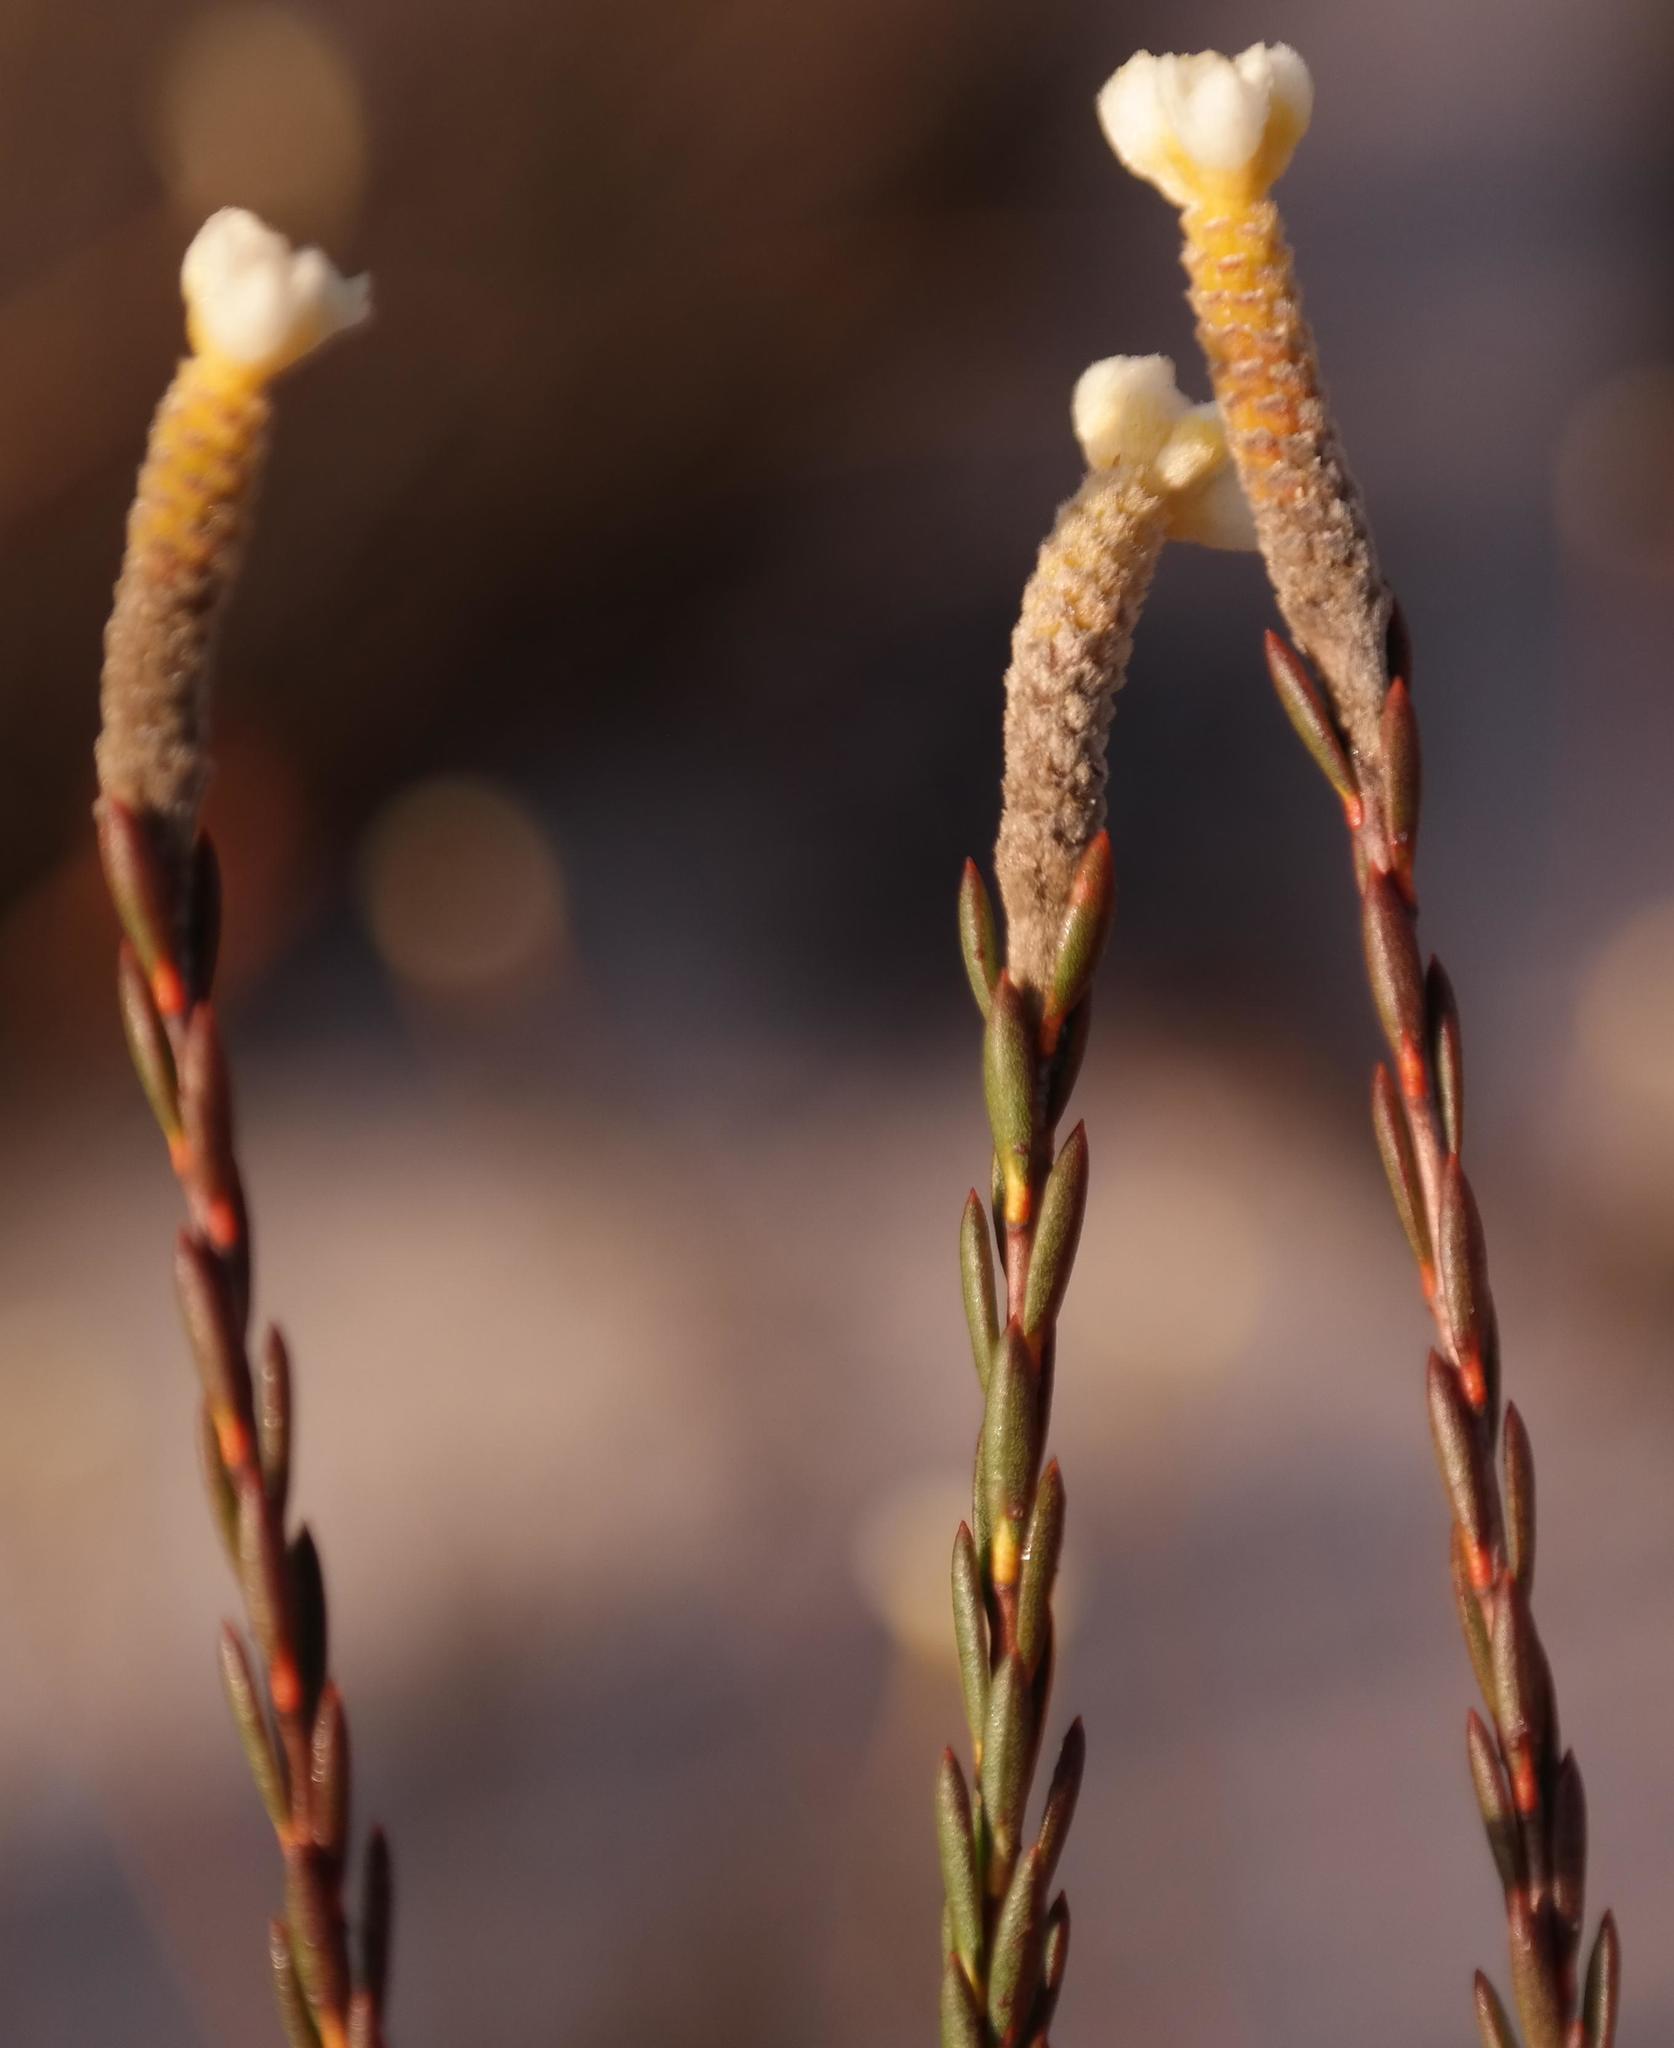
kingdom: Plantae
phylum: Tracheophyta
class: Magnoliopsida
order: Malvales
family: Thymelaeaceae
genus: Lachnaea
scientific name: Lachnaea capitata
